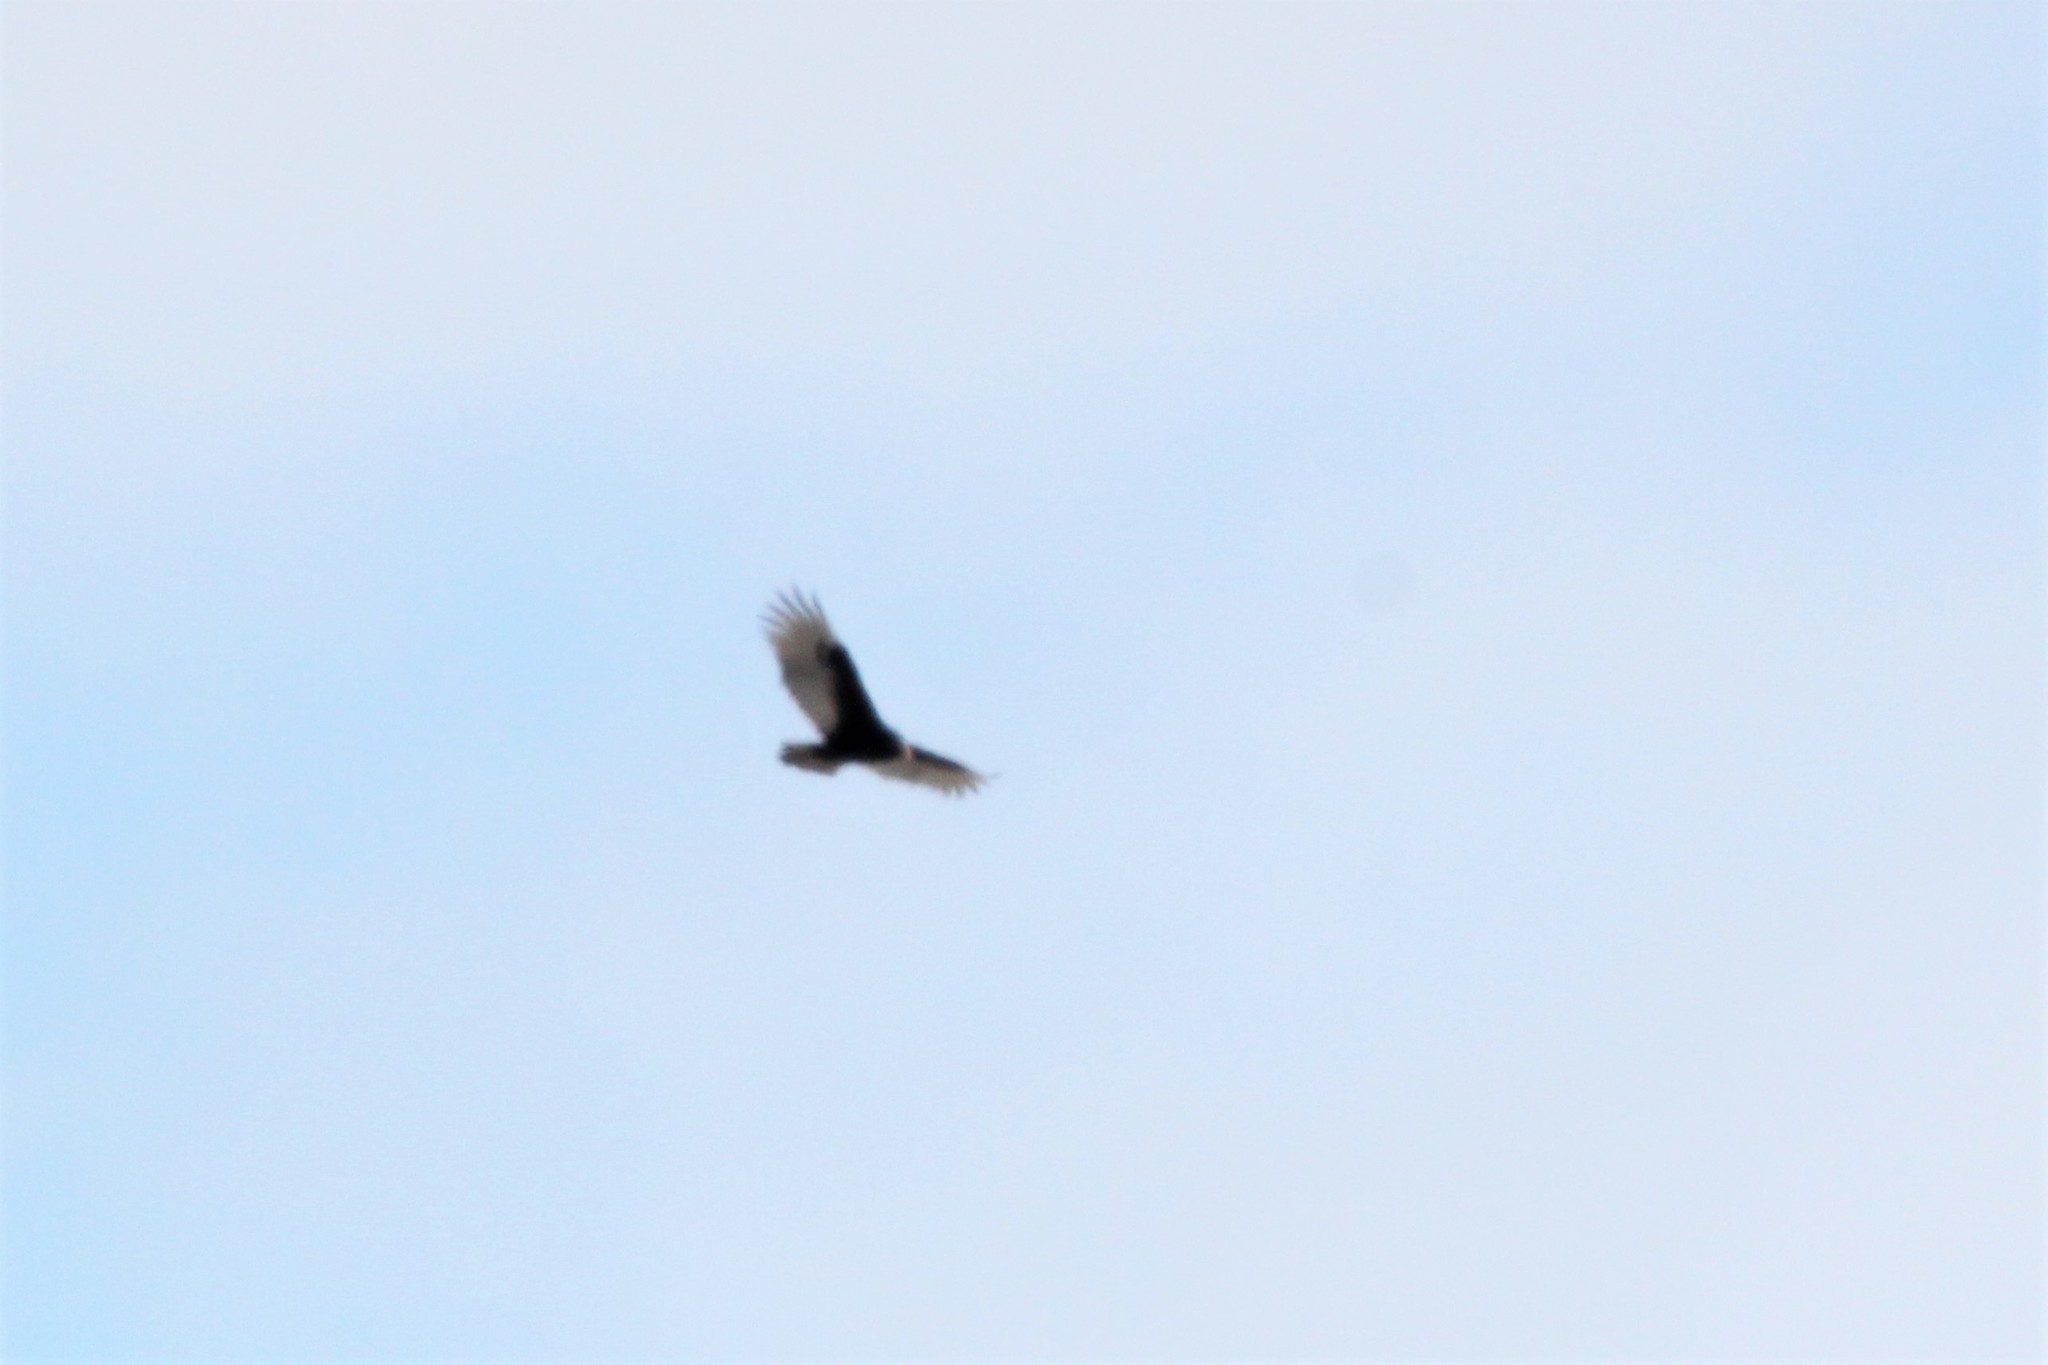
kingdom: Animalia
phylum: Chordata
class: Aves
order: Accipitriformes
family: Cathartidae
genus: Cathartes
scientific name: Cathartes aura
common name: Turkey vulture
